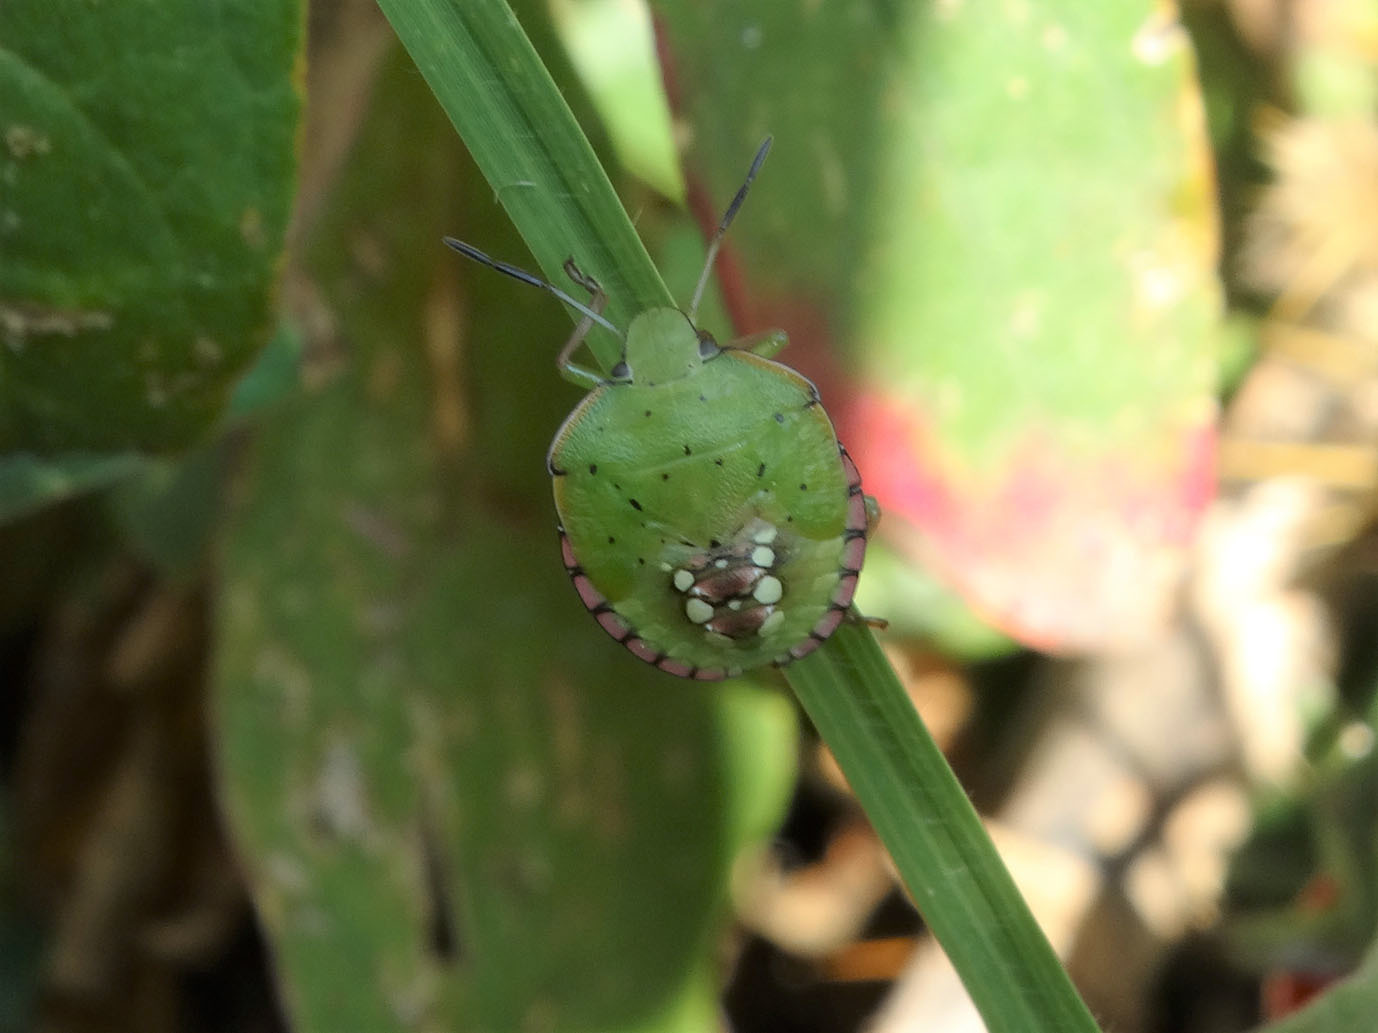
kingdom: Animalia
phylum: Arthropoda
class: Insecta
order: Hemiptera
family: Pentatomidae
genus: Nezara
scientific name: Nezara viridula
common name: Southern green stink bug
